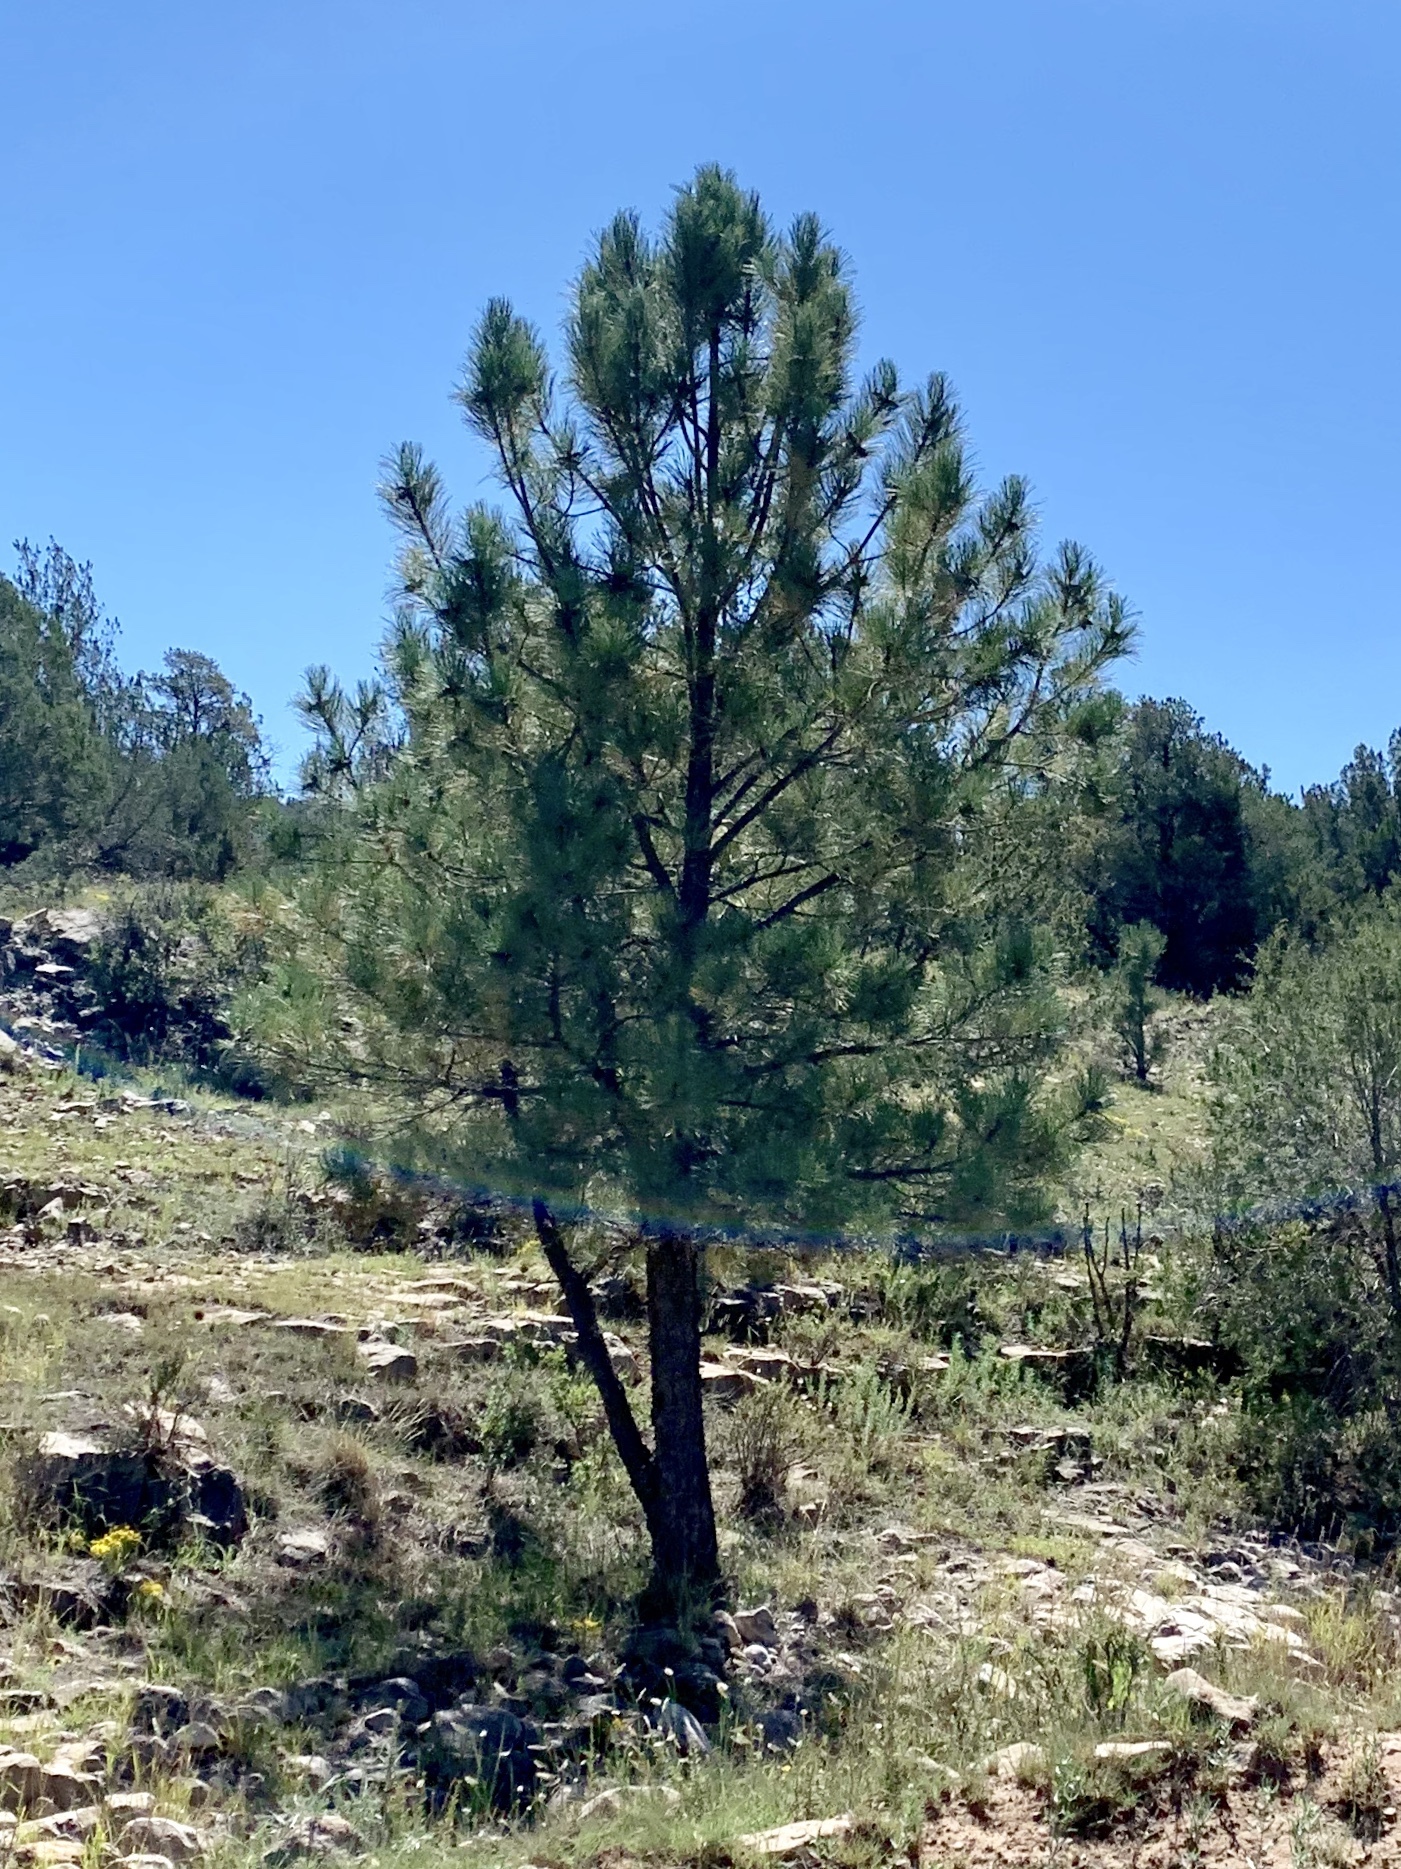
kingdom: Plantae
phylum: Tracheophyta
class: Pinopsida
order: Pinales
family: Pinaceae
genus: Pinus
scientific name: Pinus ponderosa
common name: Western yellow-pine
